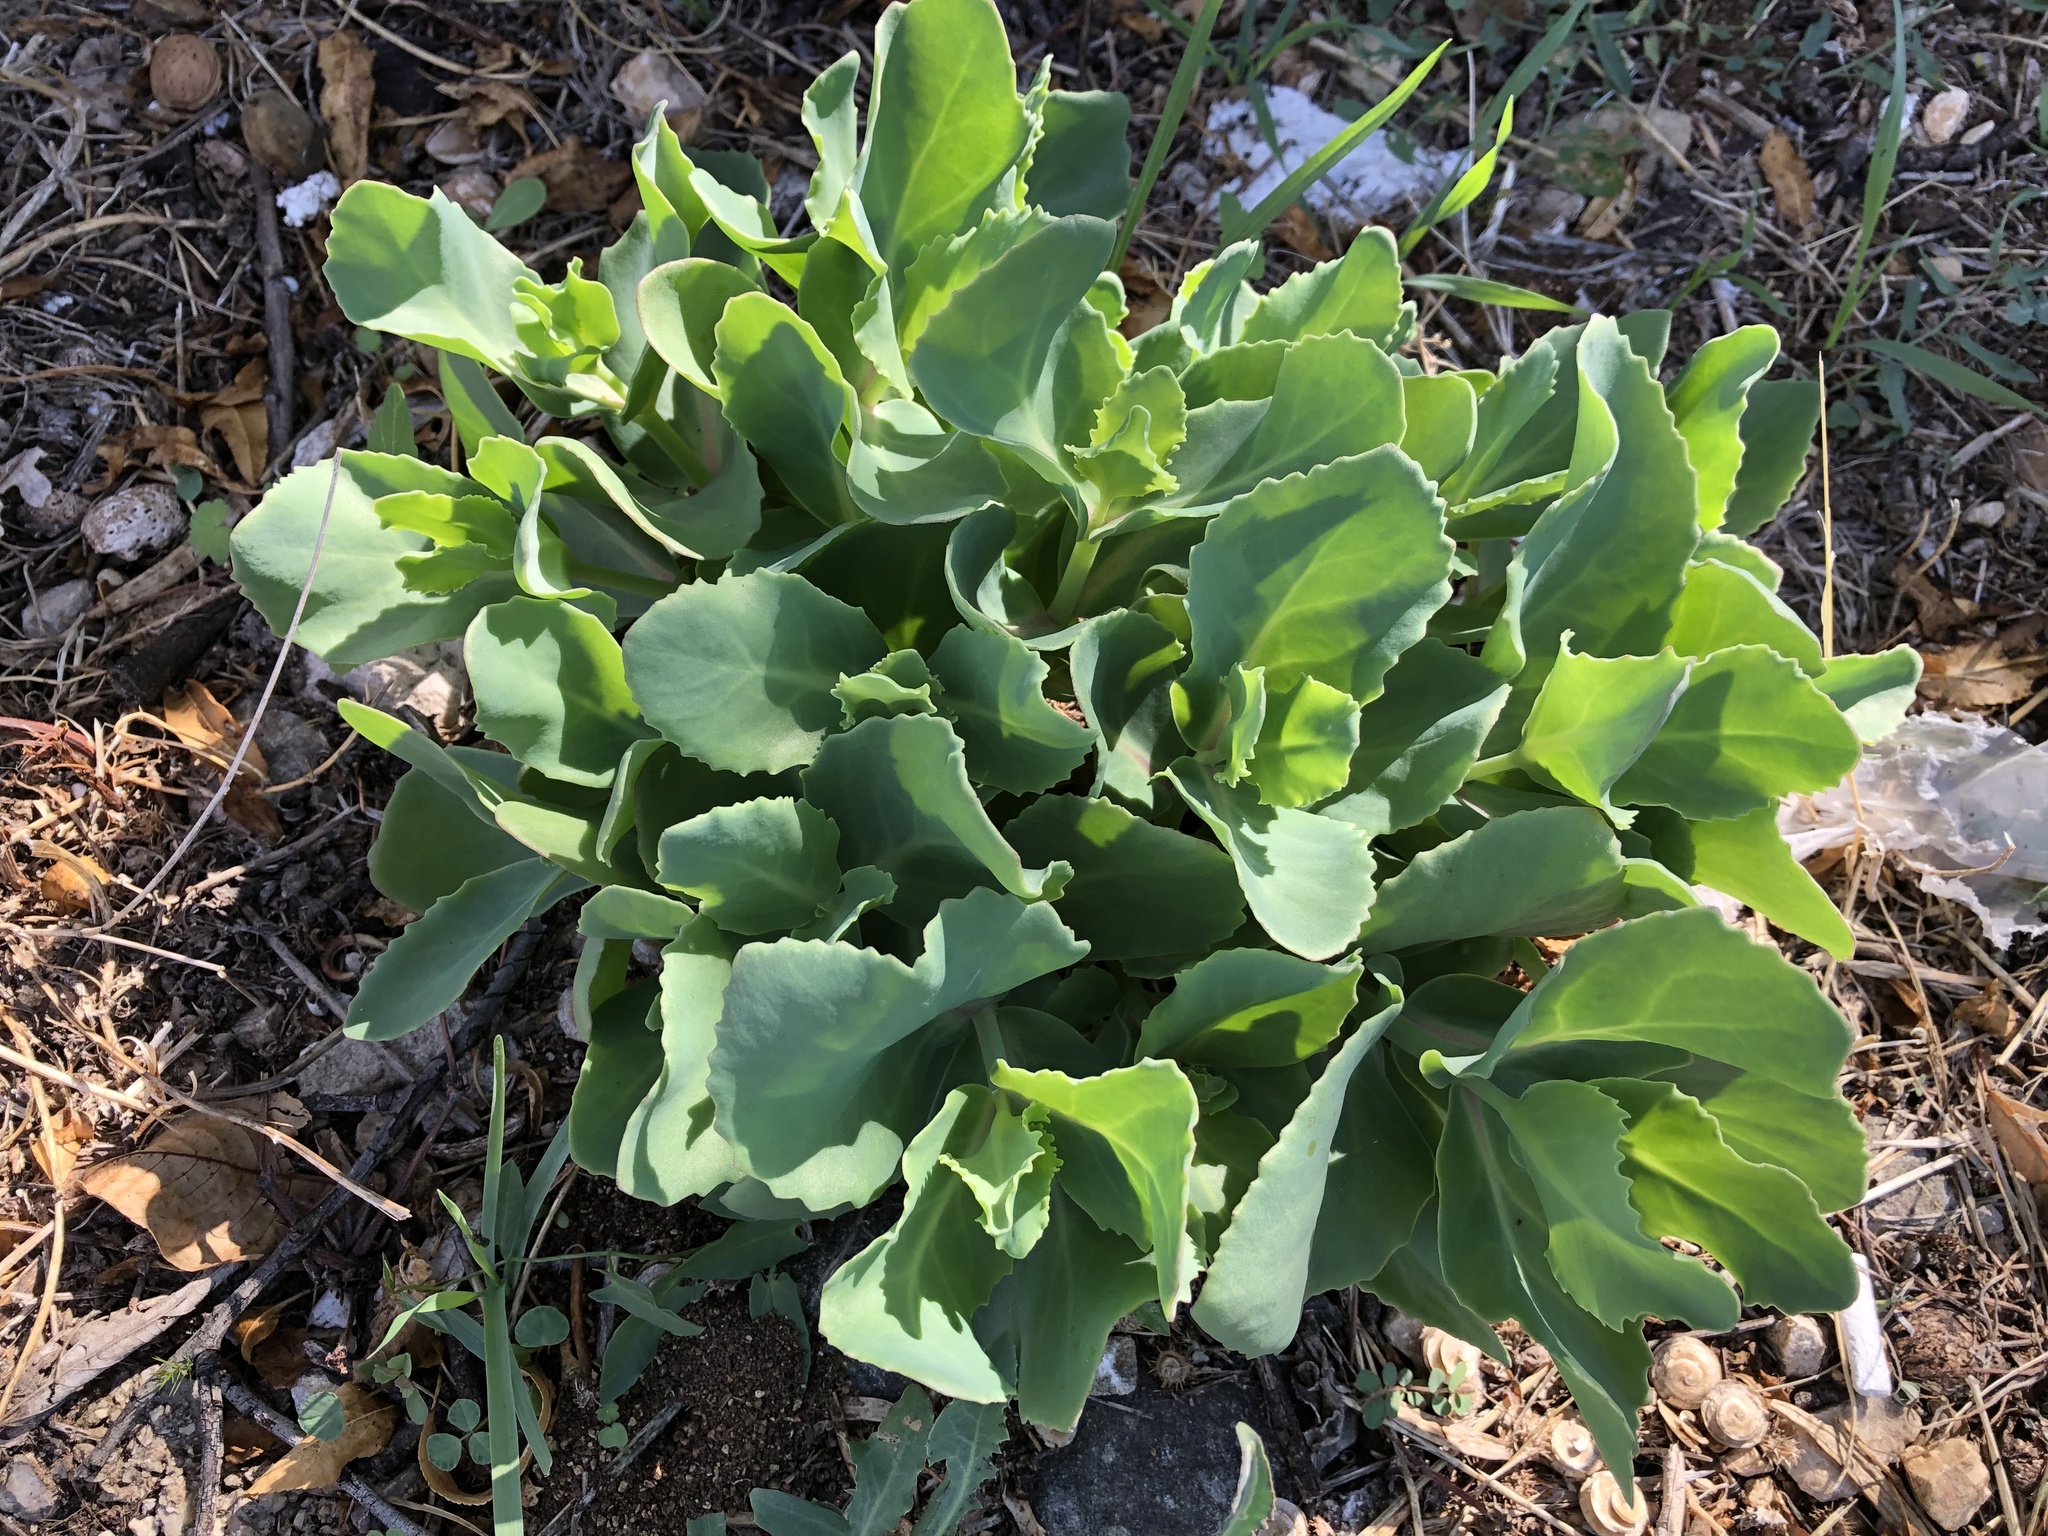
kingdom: Plantae
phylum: Tracheophyta
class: Magnoliopsida
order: Saxifragales
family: Crassulaceae
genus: Hylotelephium
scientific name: Hylotelephium maximum
